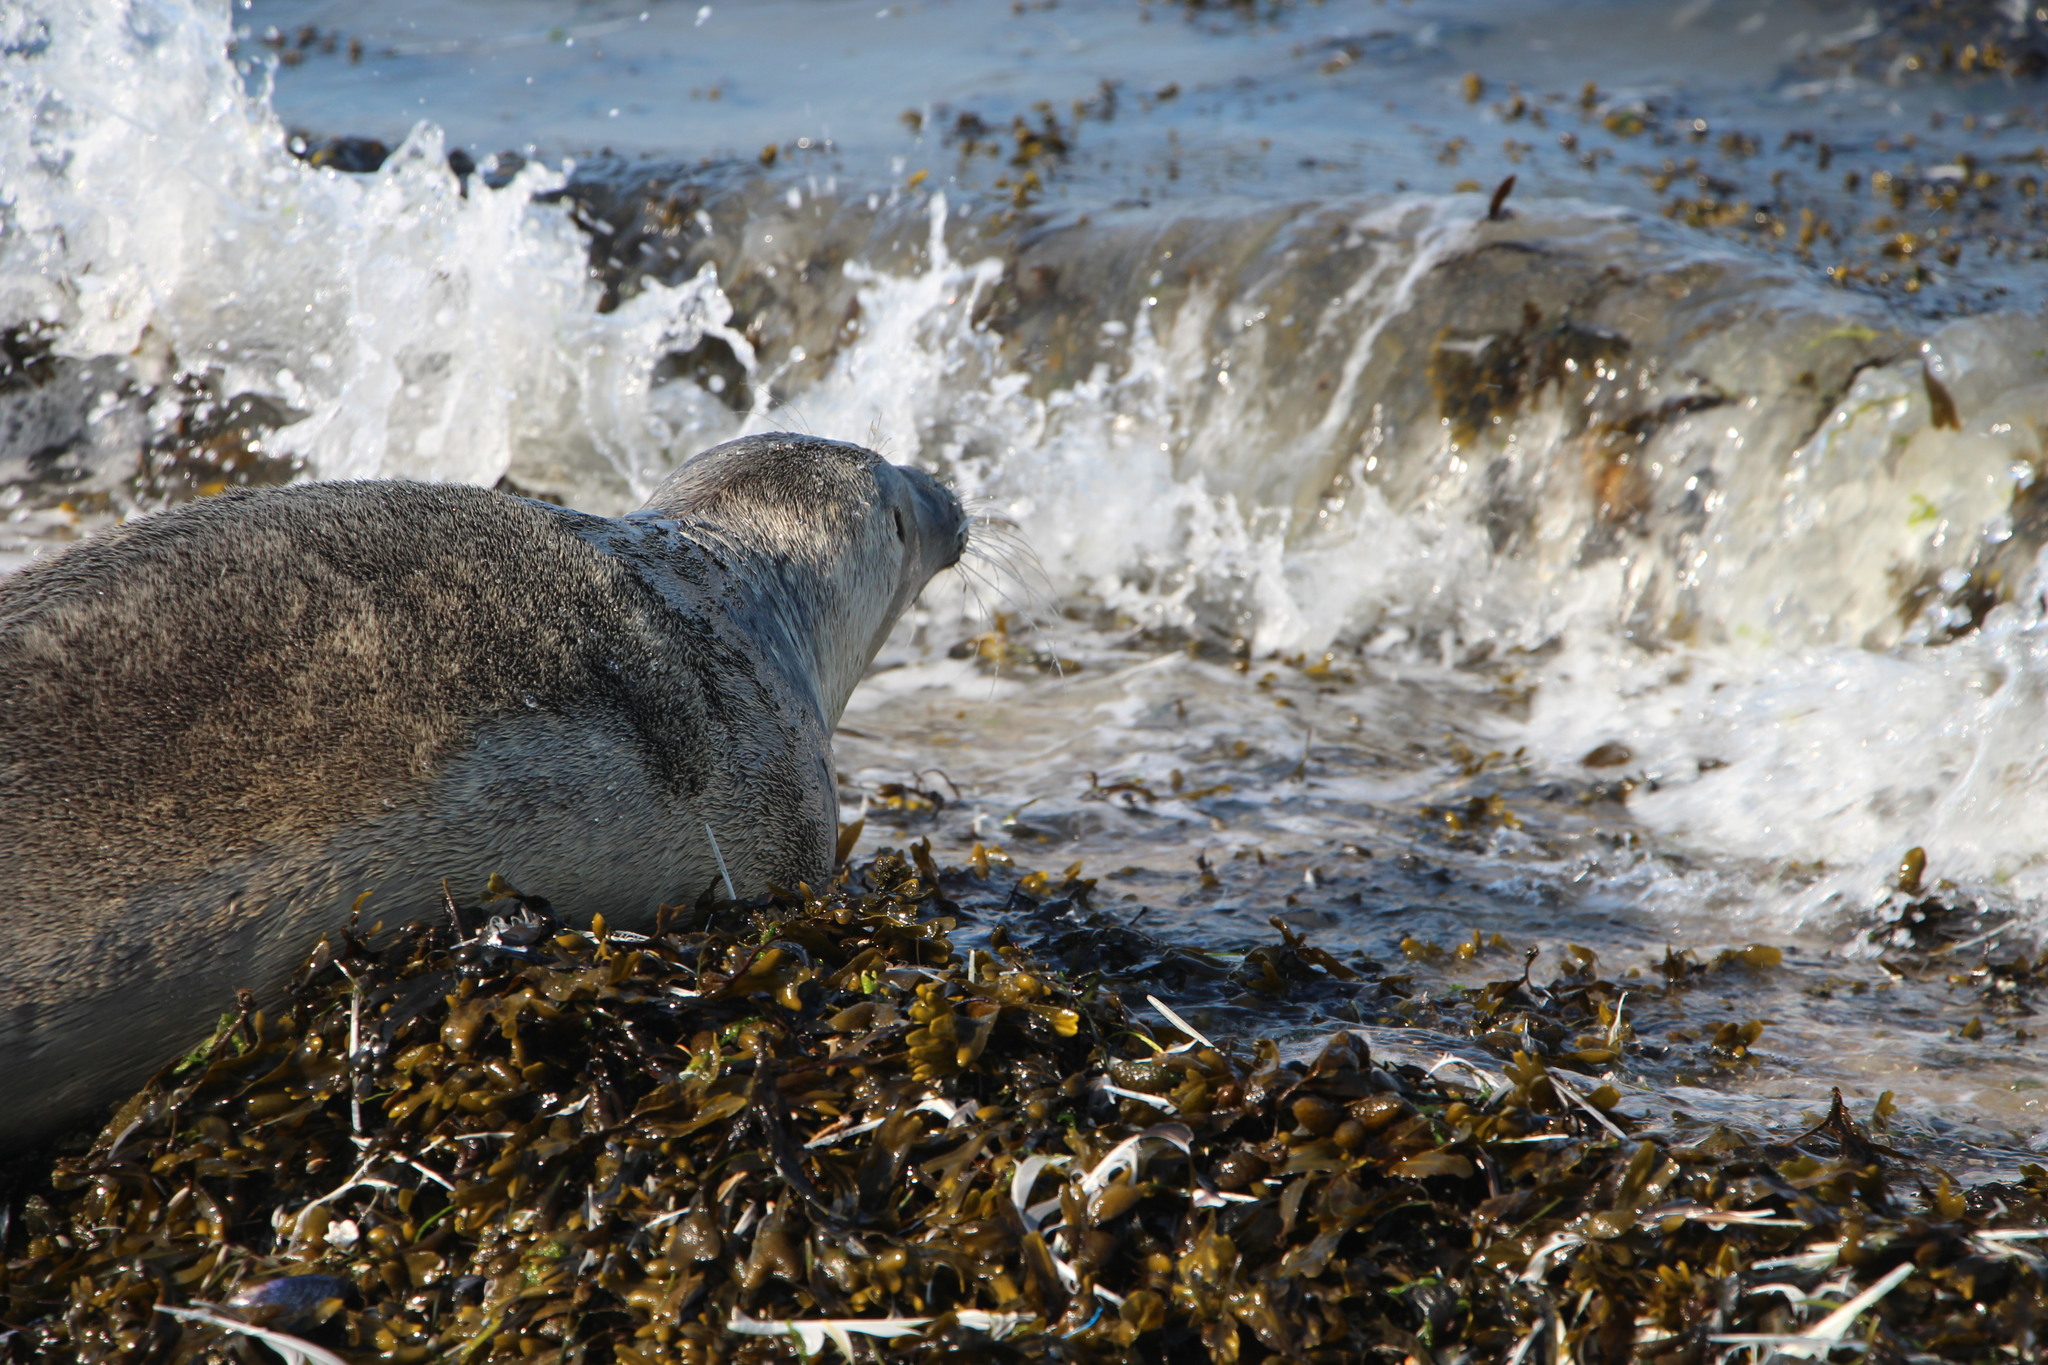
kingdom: Animalia
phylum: Chordata
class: Mammalia
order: Carnivora
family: Phocidae
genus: Phoca
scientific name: Phoca vitulina
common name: Harbor seal
